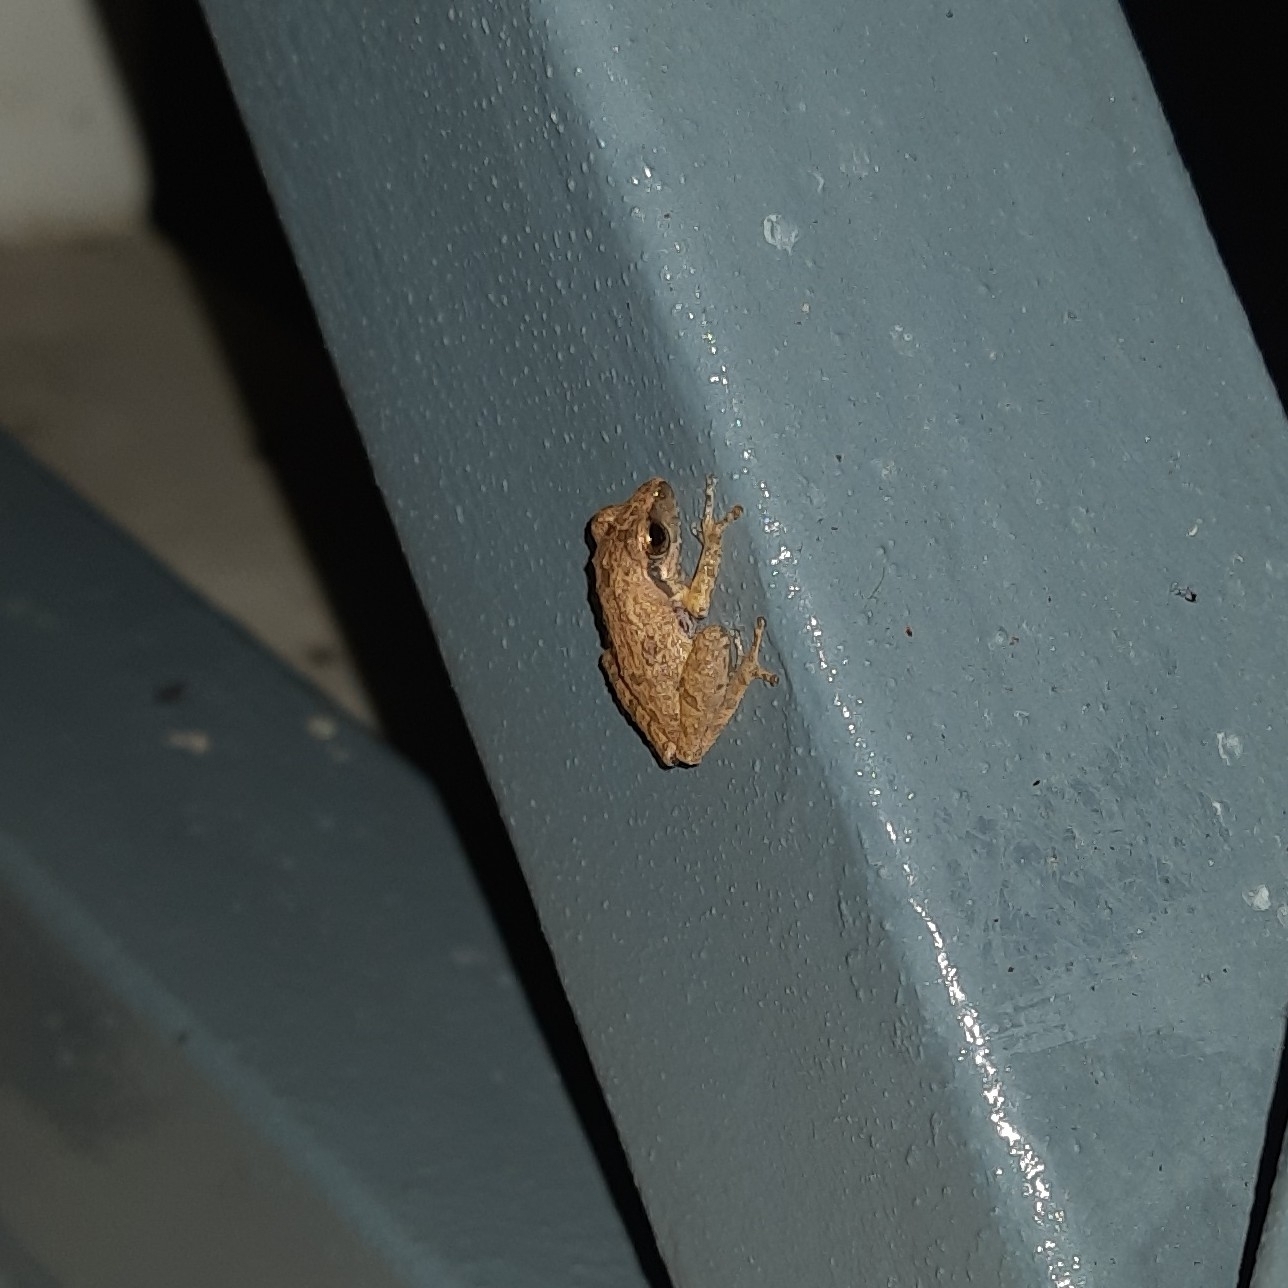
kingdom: Animalia
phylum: Chordata
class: Amphibia
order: Anura
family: Rhacophoridae
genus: Pseudophilautus
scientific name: Pseudophilautus wynaadensis
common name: Dark-eared bush frog
